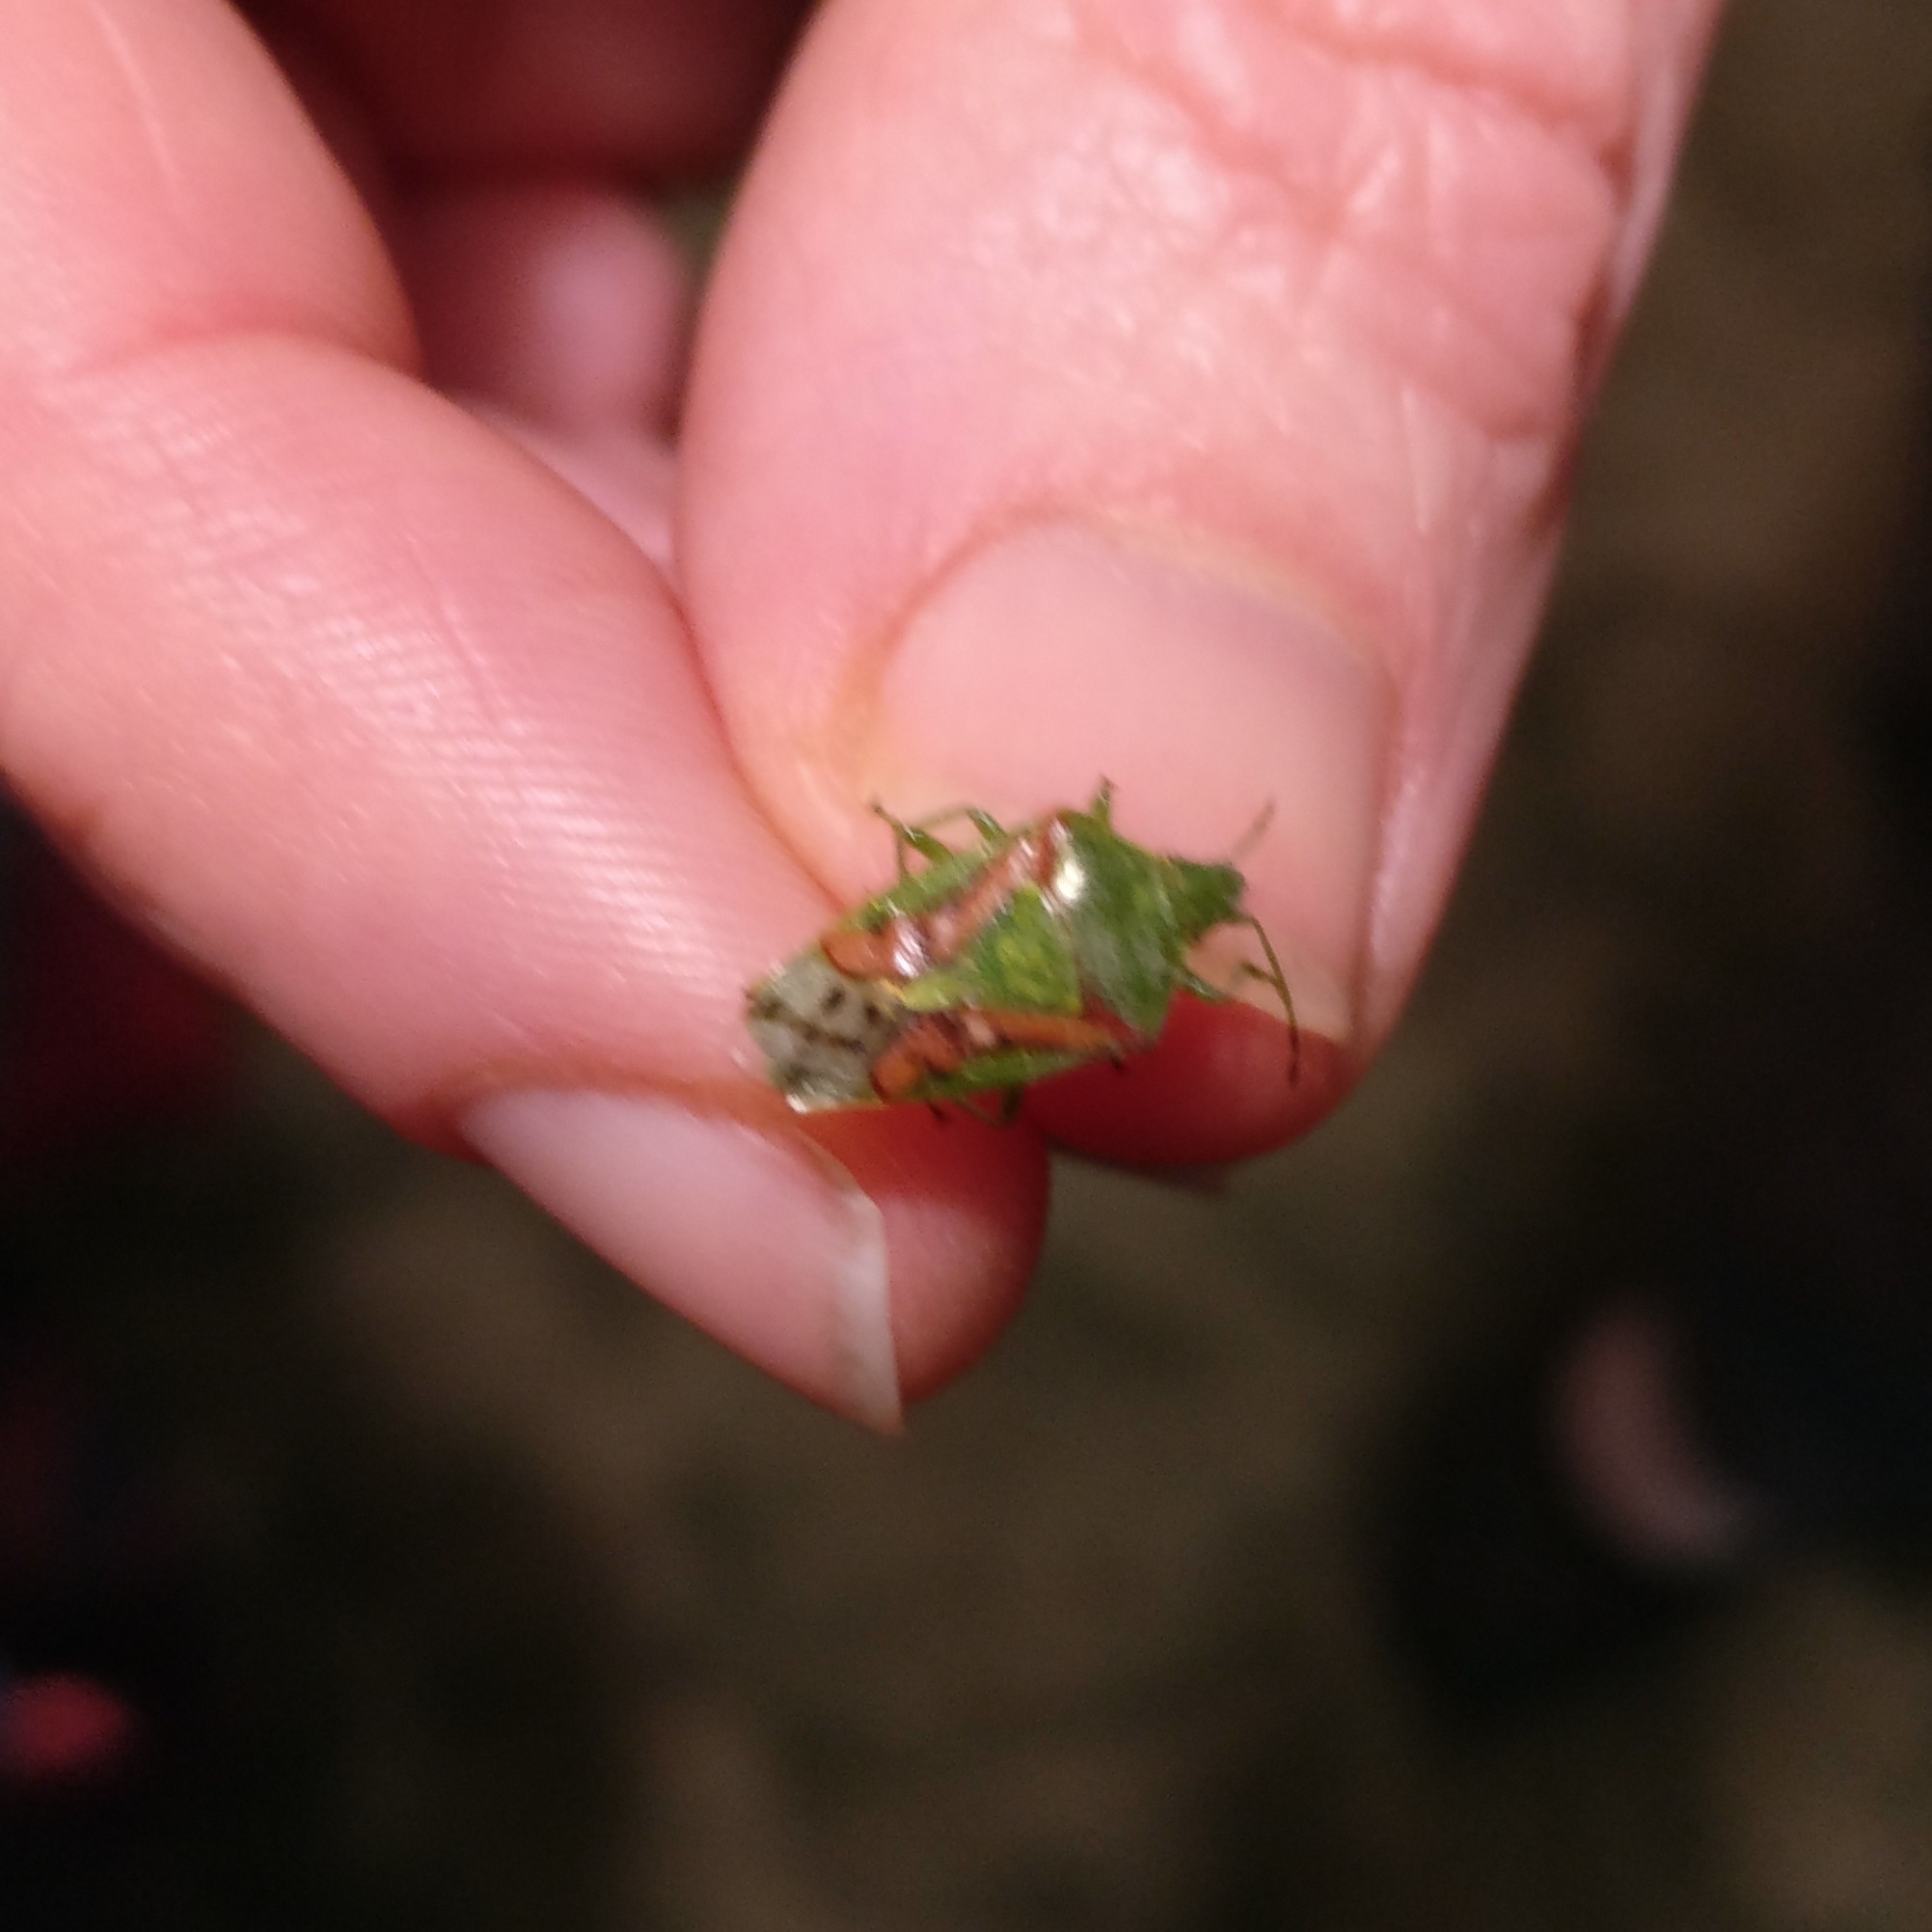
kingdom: Animalia
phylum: Arthropoda
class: Insecta
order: Hemiptera
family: Acanthosomatidae
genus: Cyphostethus
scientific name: Cyphostethus tristriatus
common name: Juniper shieldbug
